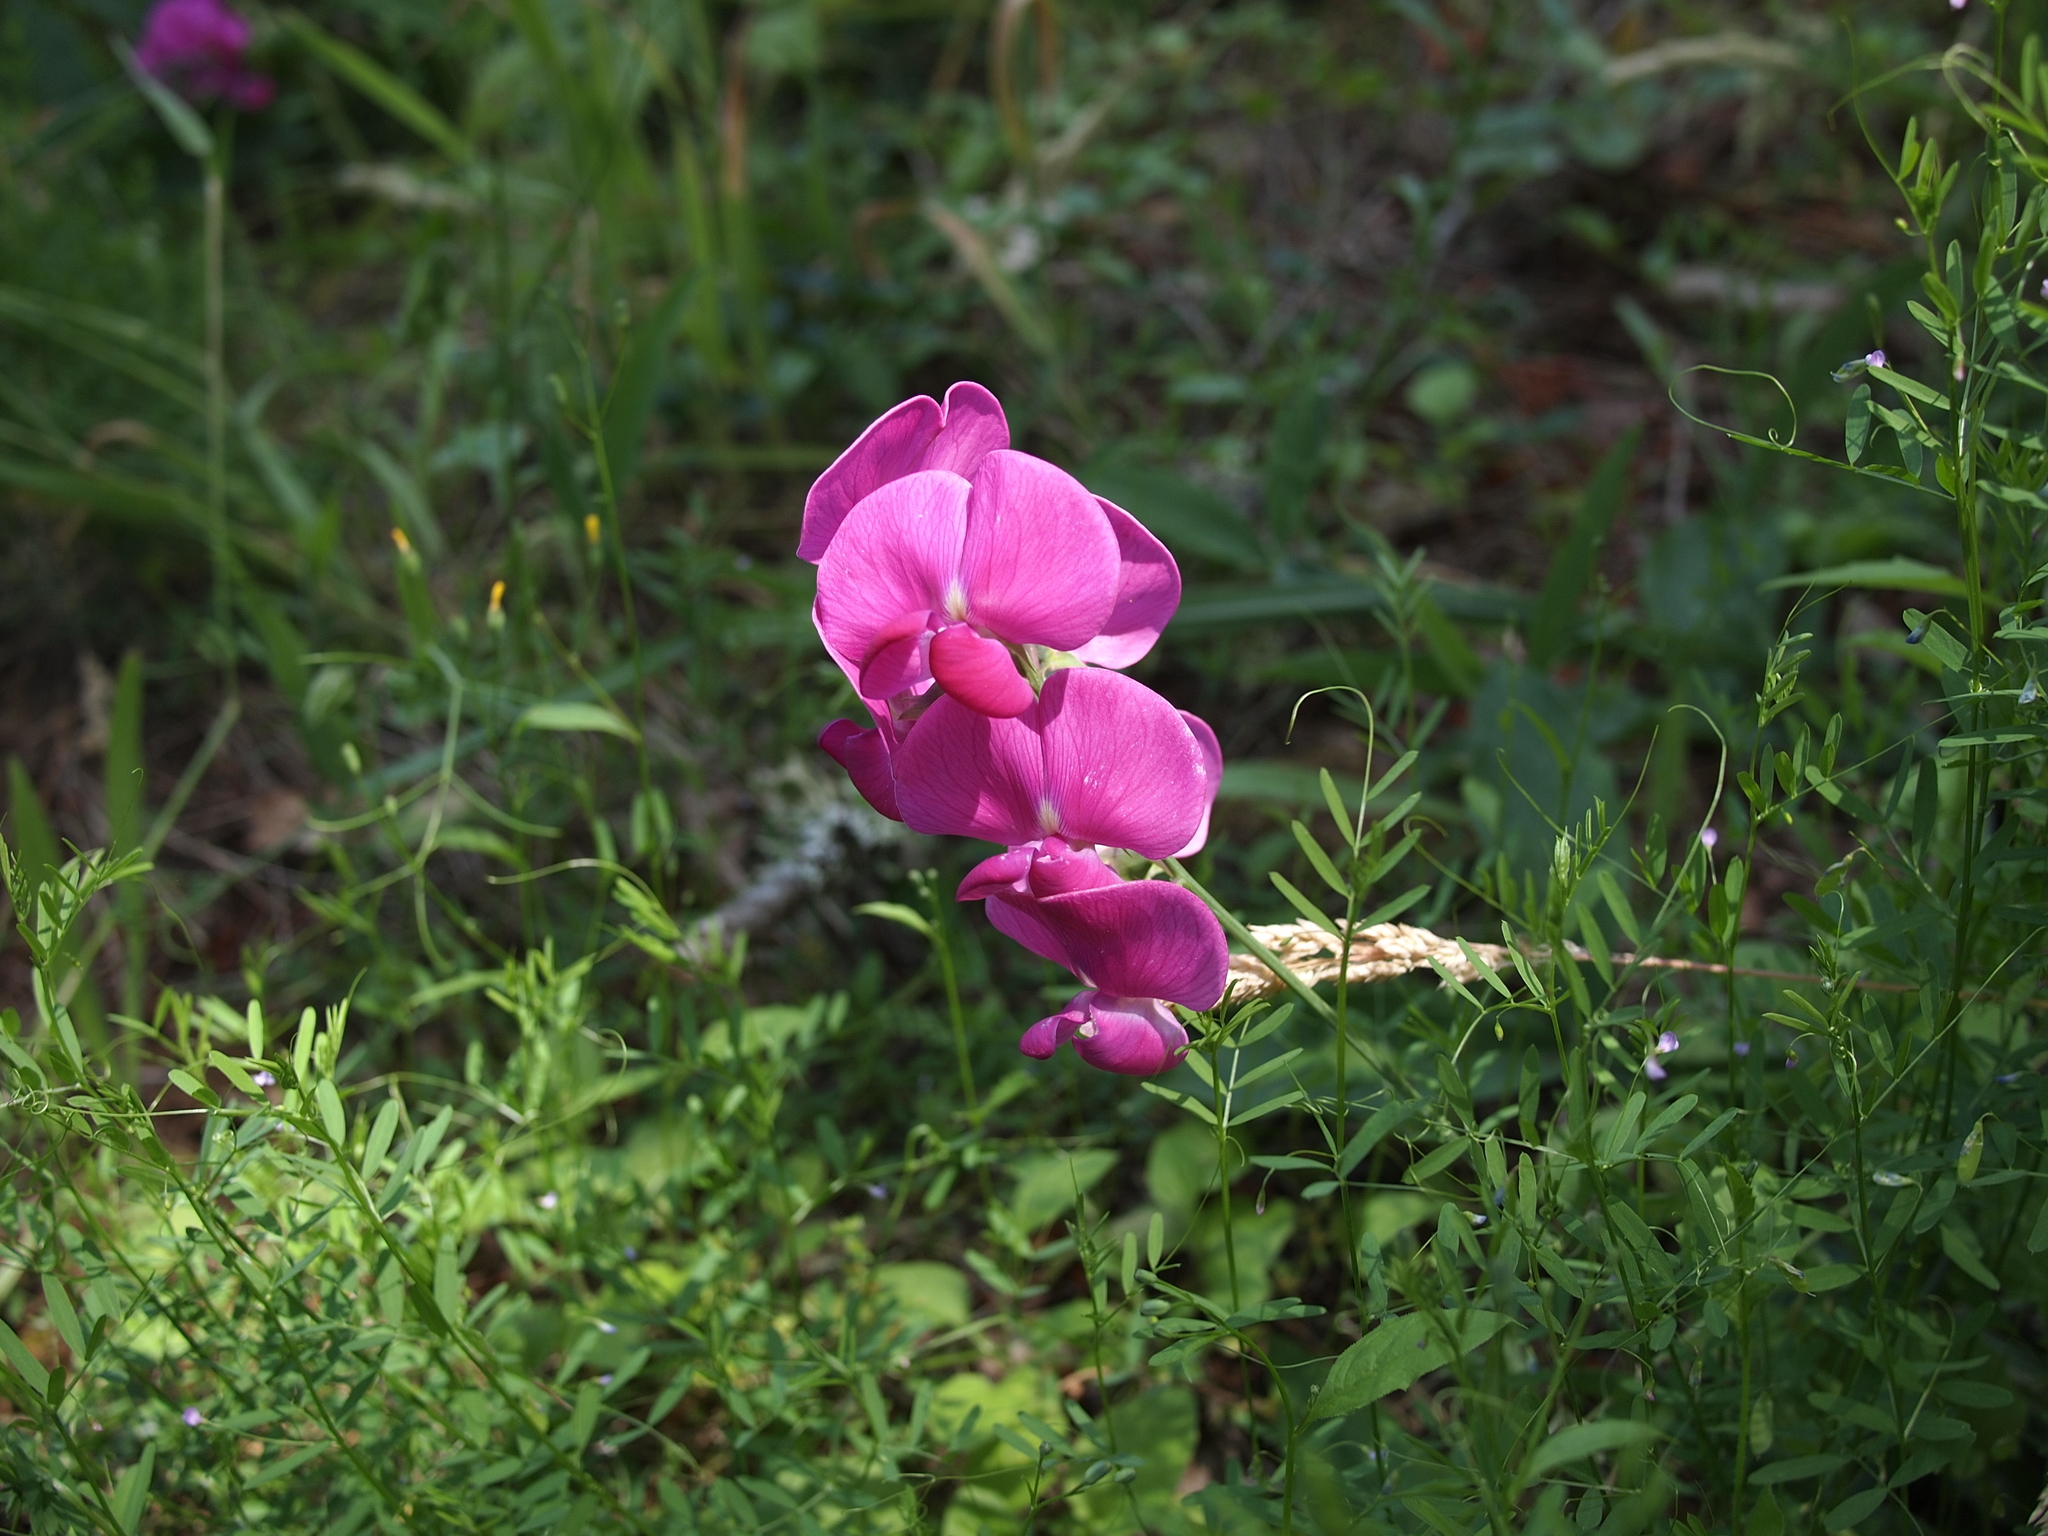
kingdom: Plantae
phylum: Tracheophyta
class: Magnoliopsida
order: Fabales
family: Fabaceae
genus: Lathyrus
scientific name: Lathyrus latifolius
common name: Perennial pea
